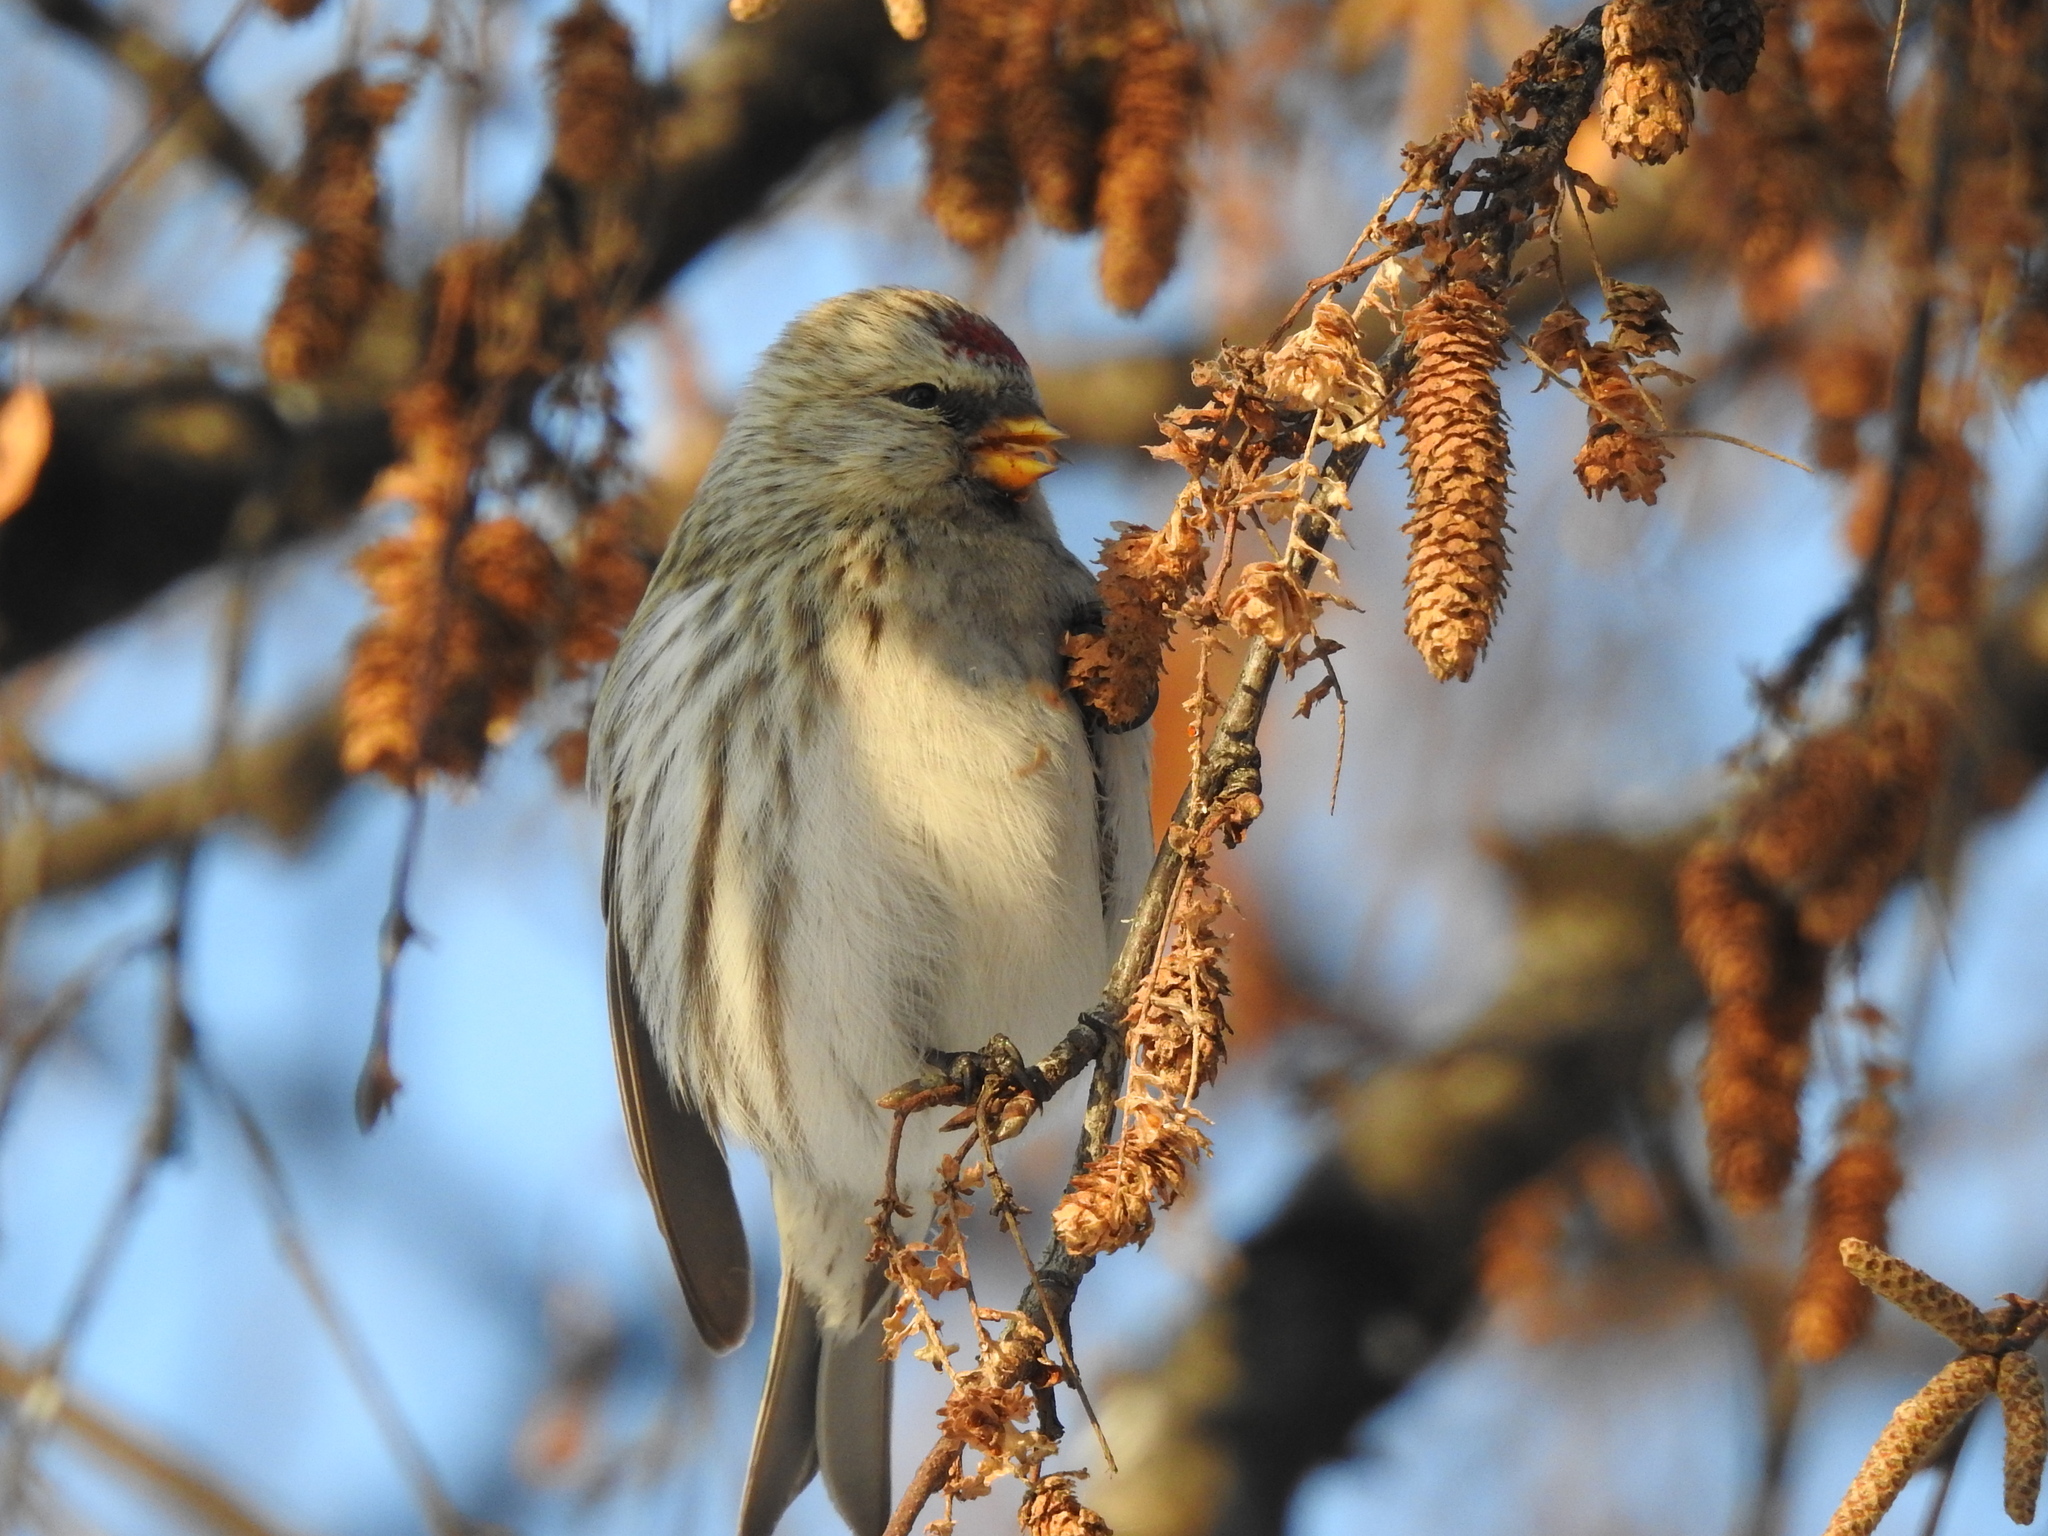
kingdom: Animalia
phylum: Chordata
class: Aves
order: Passeriformes
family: Fringillidae
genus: Acanthis
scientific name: Acanthis flammea
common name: Common redpoll
